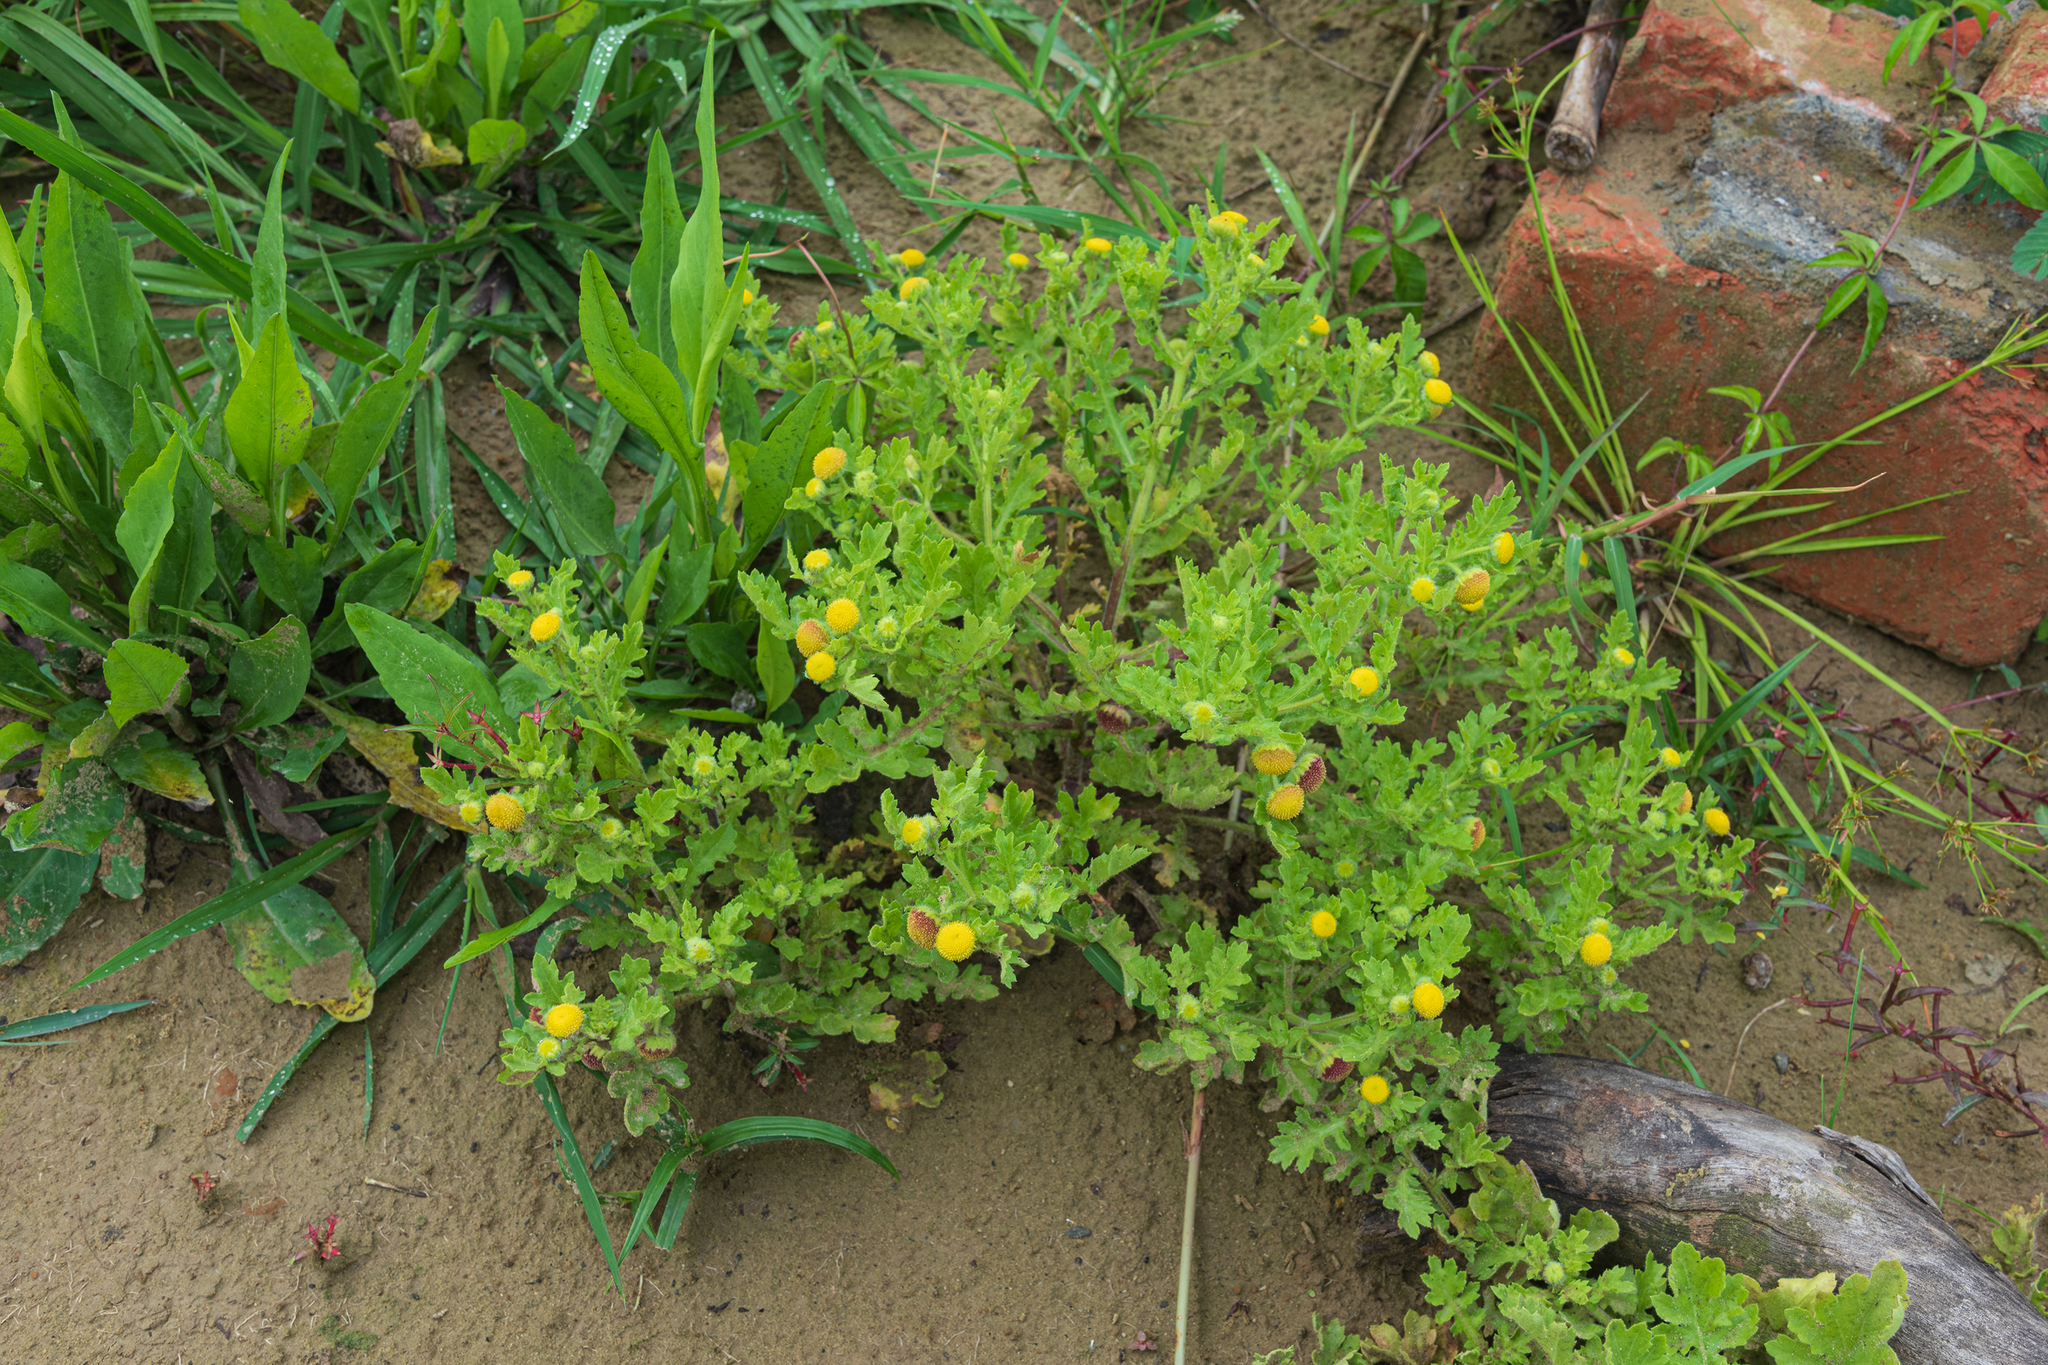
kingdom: Plantae
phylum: Tracheophyta
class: Magnoliopsida
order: Asterales
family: Asteraceae
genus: Grangea
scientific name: Grangea maderaspatana
